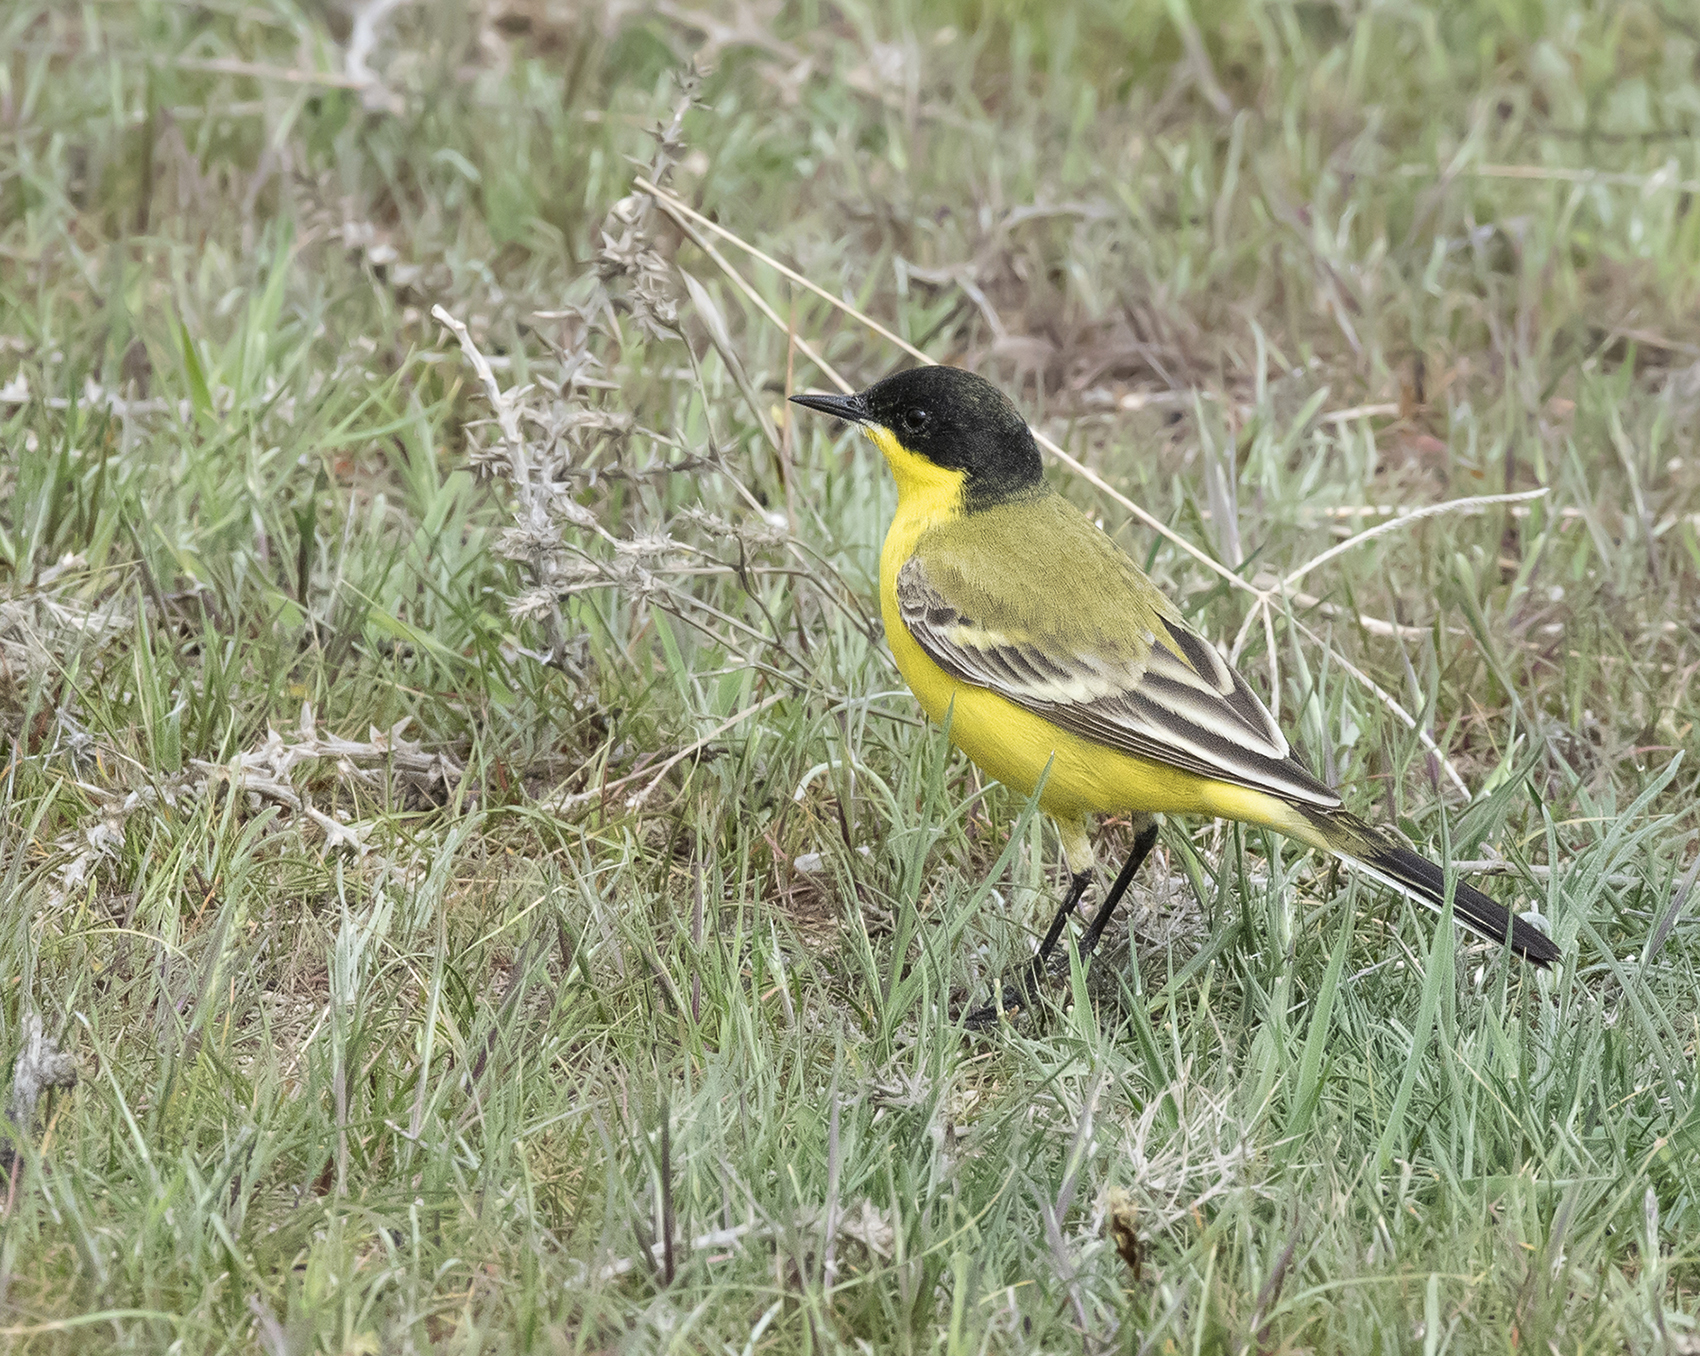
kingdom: Animalia
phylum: Chordata
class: Aves
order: Passeriformes
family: Motacillidae
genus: Motacilla
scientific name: Motacilla flava
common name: Western yellow wagtail
